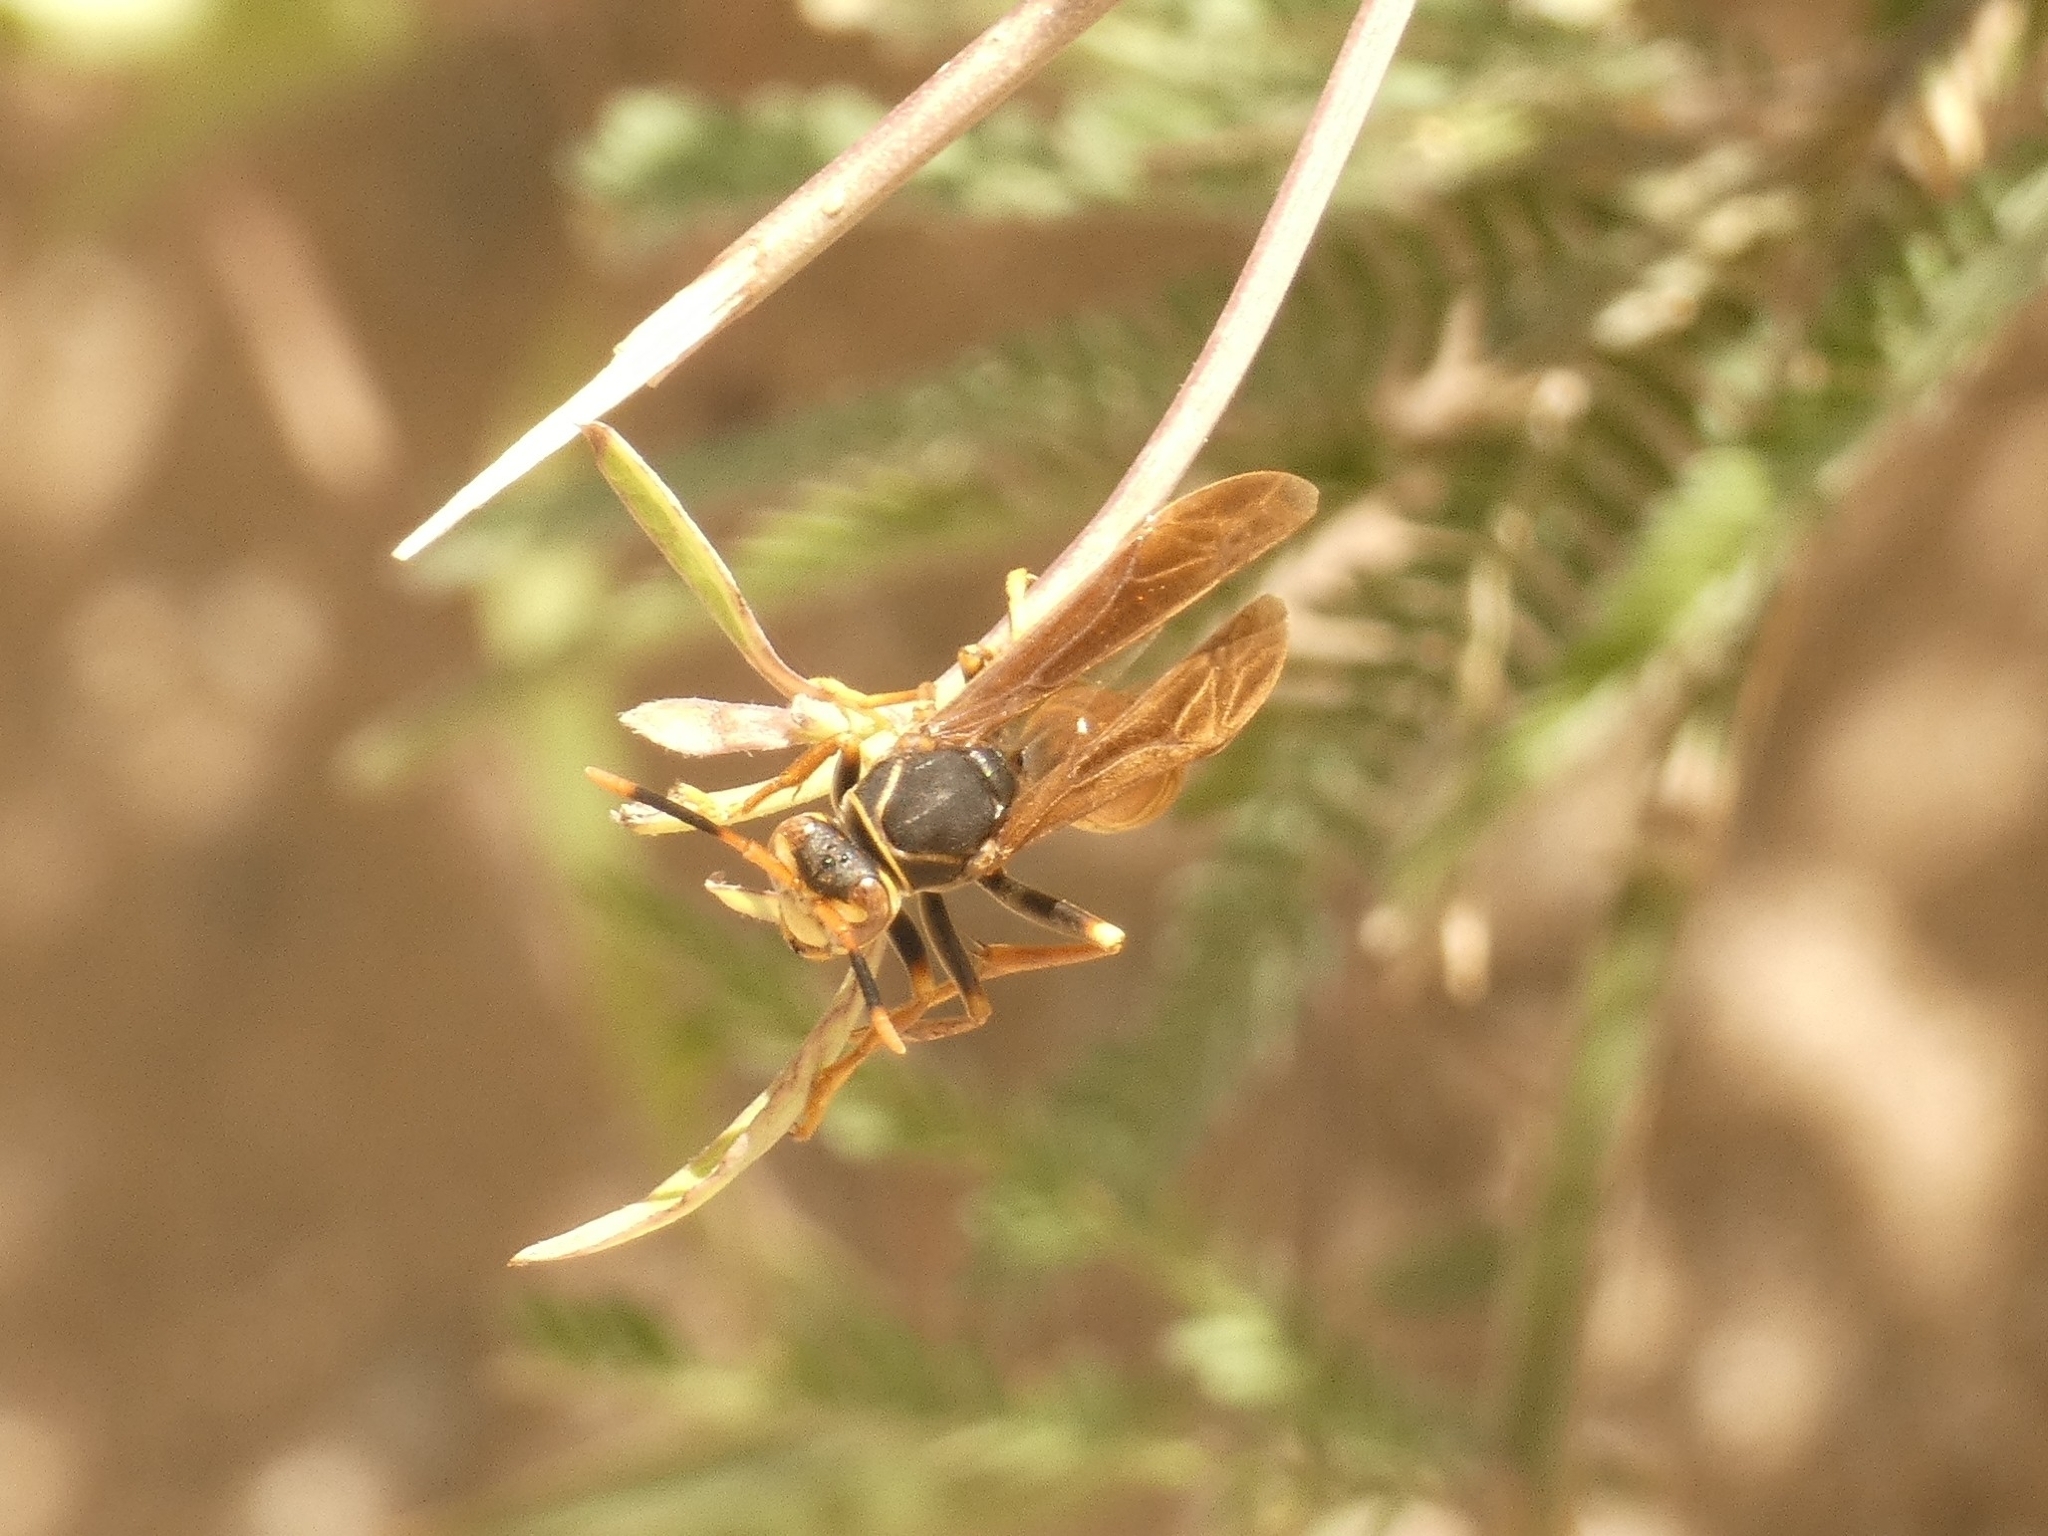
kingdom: Animalia
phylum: Arthropoda
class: Insecta
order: Hymenoptera
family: Eumenidae
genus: Polistes
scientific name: Polistes buyssoni
